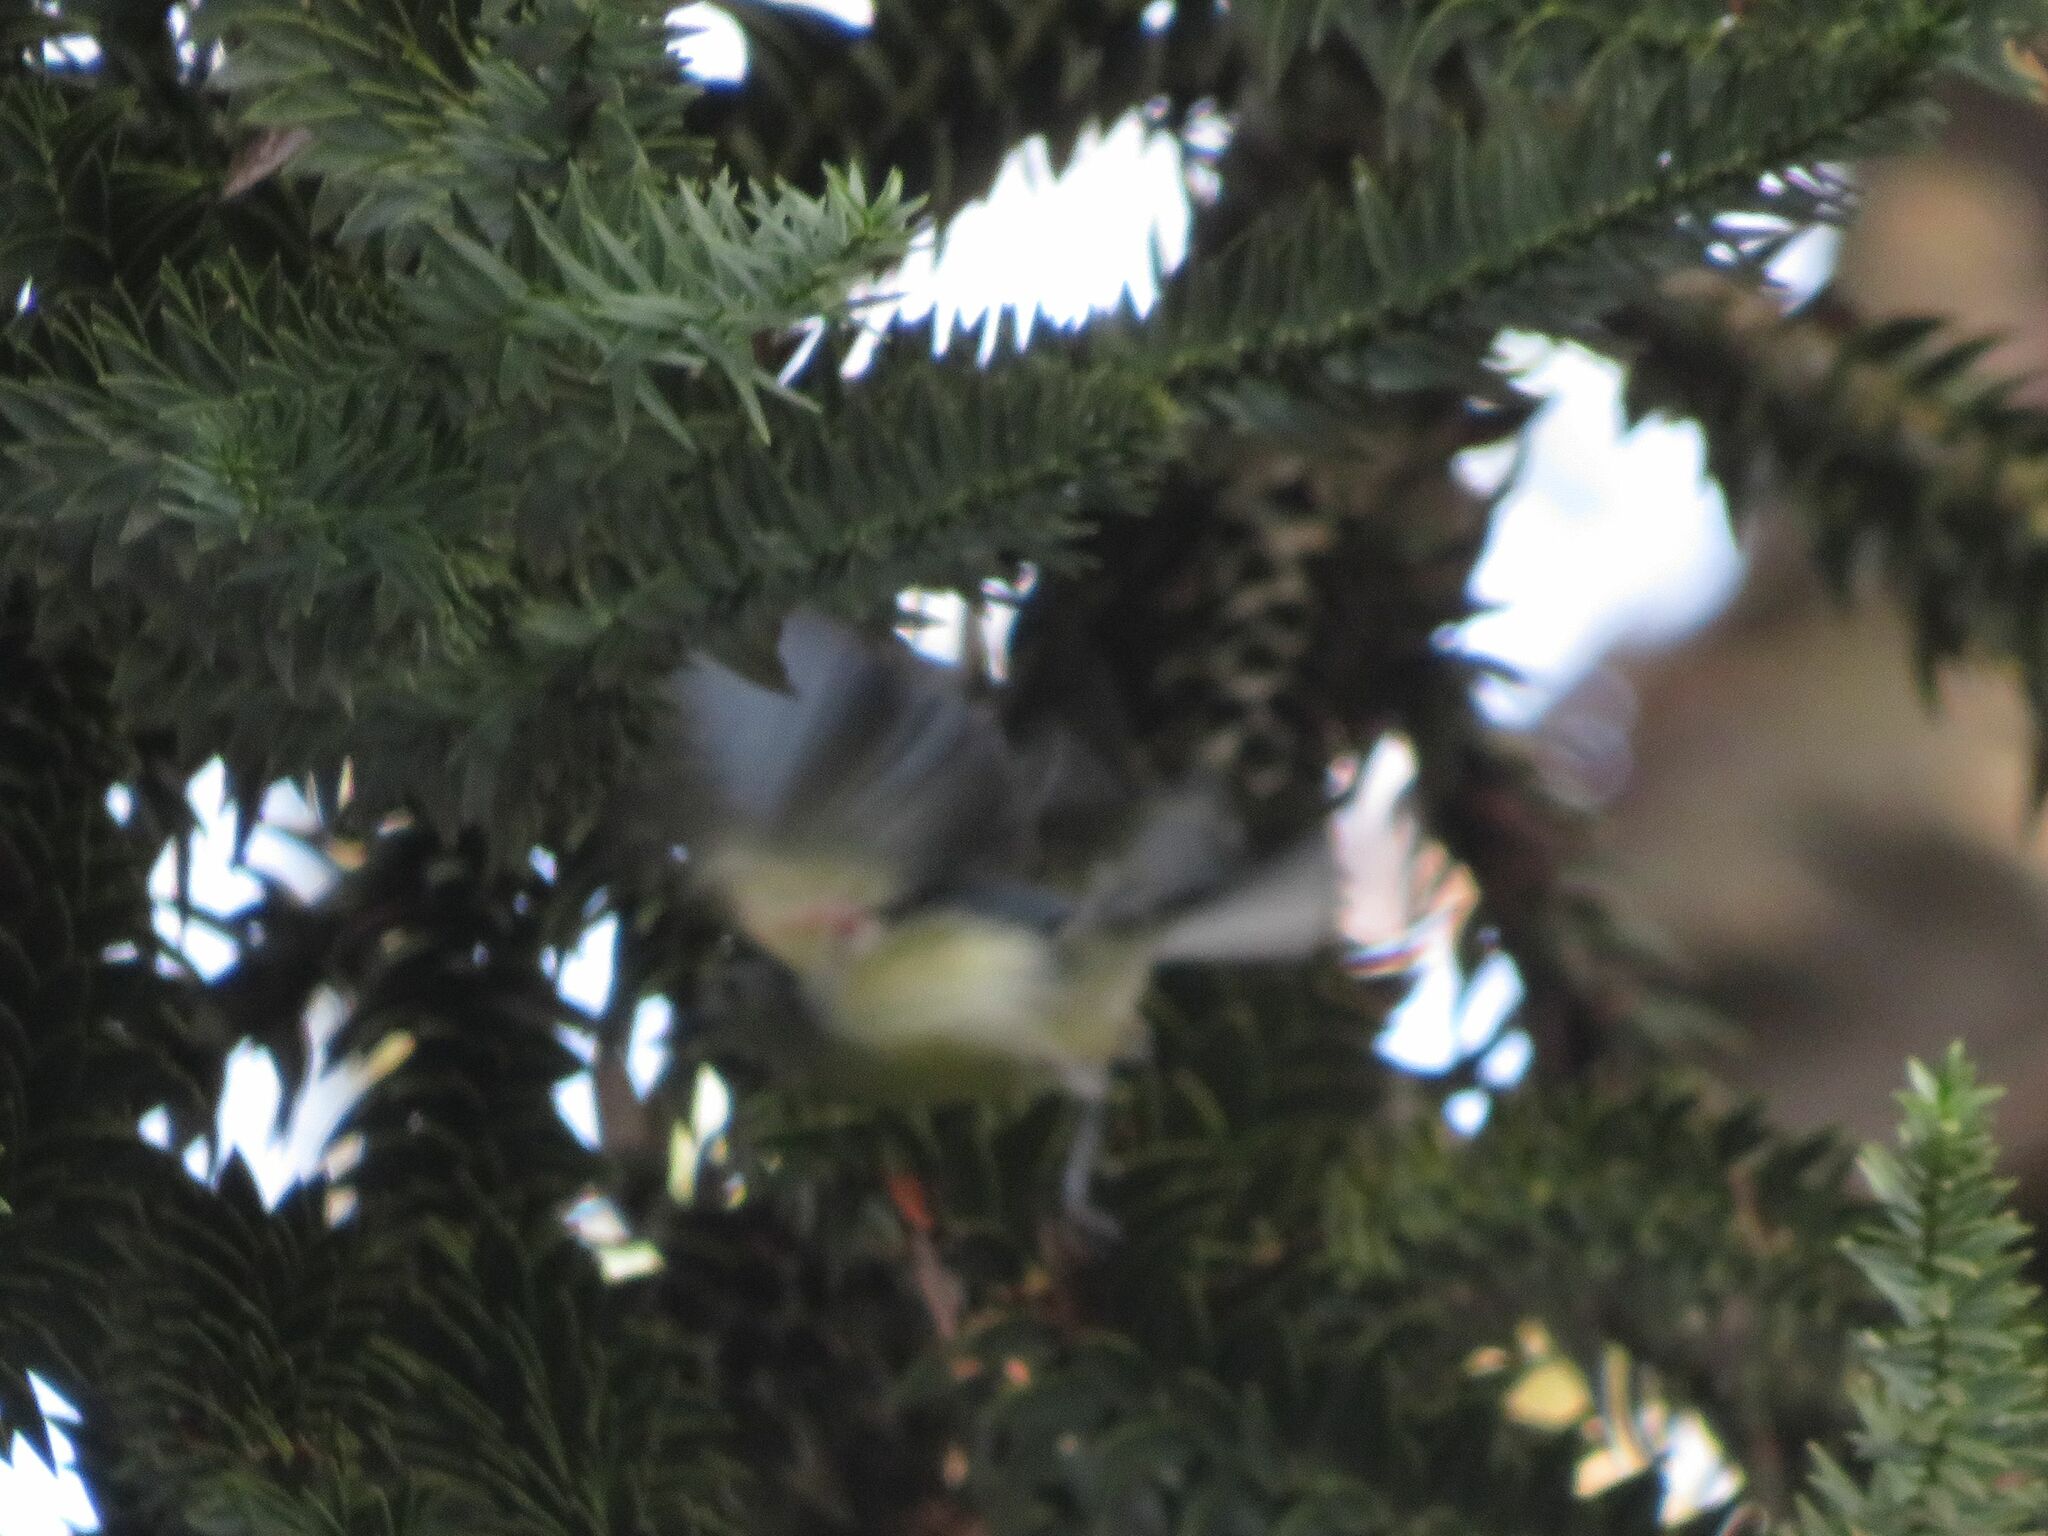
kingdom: Animalia
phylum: Chordata
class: Aves
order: Passeriformes
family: Polioptilidae
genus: Polioptila
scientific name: Polioptila lactea
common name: Creamy-bellied gnatcatcher
